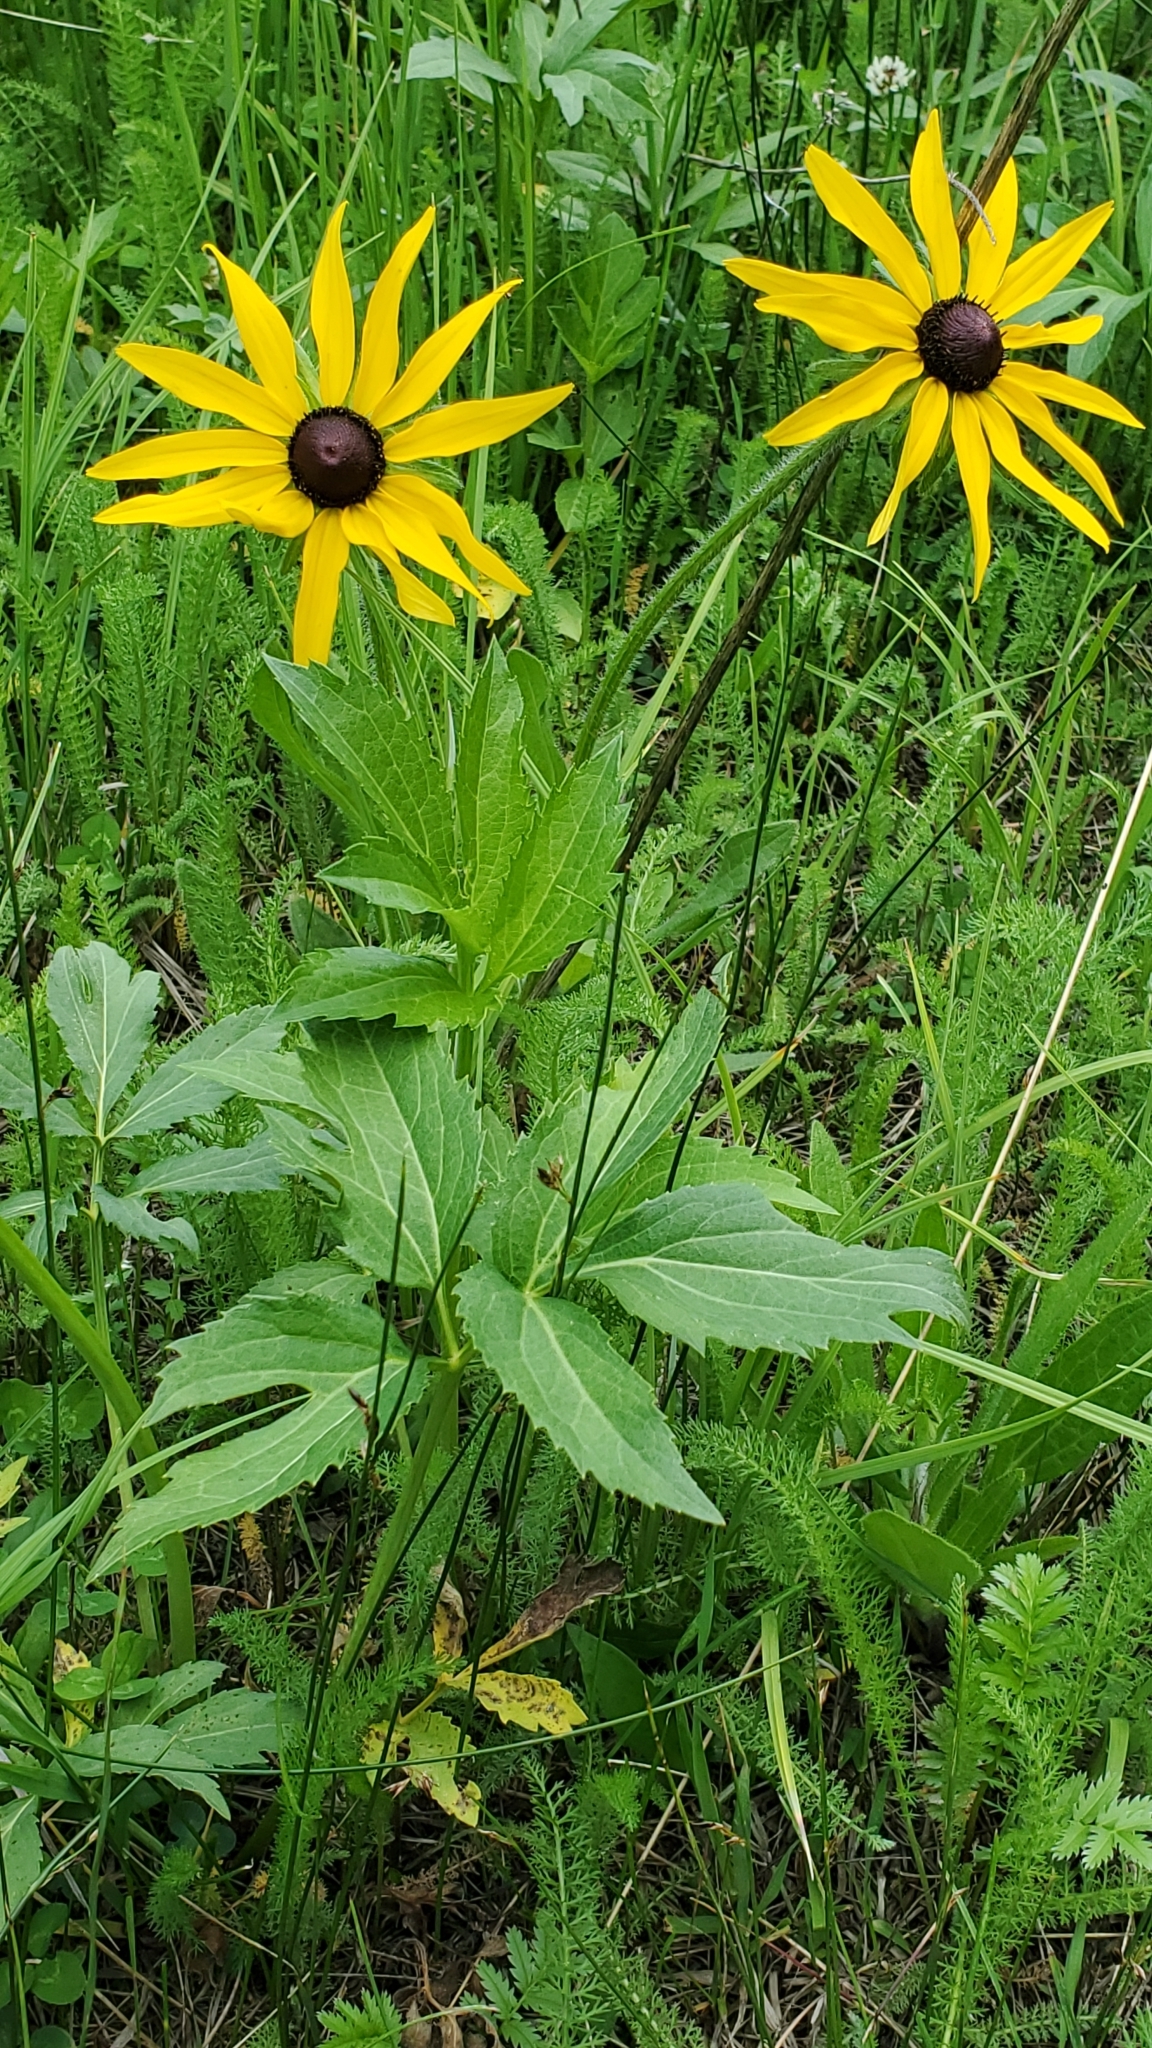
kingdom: Plantae
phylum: Tracheophyta
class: Magnoliopsida
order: Asterales
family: Asteraceae
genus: Rudbeckia
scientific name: Rudbeckia hirta
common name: Black-eyed-susan
